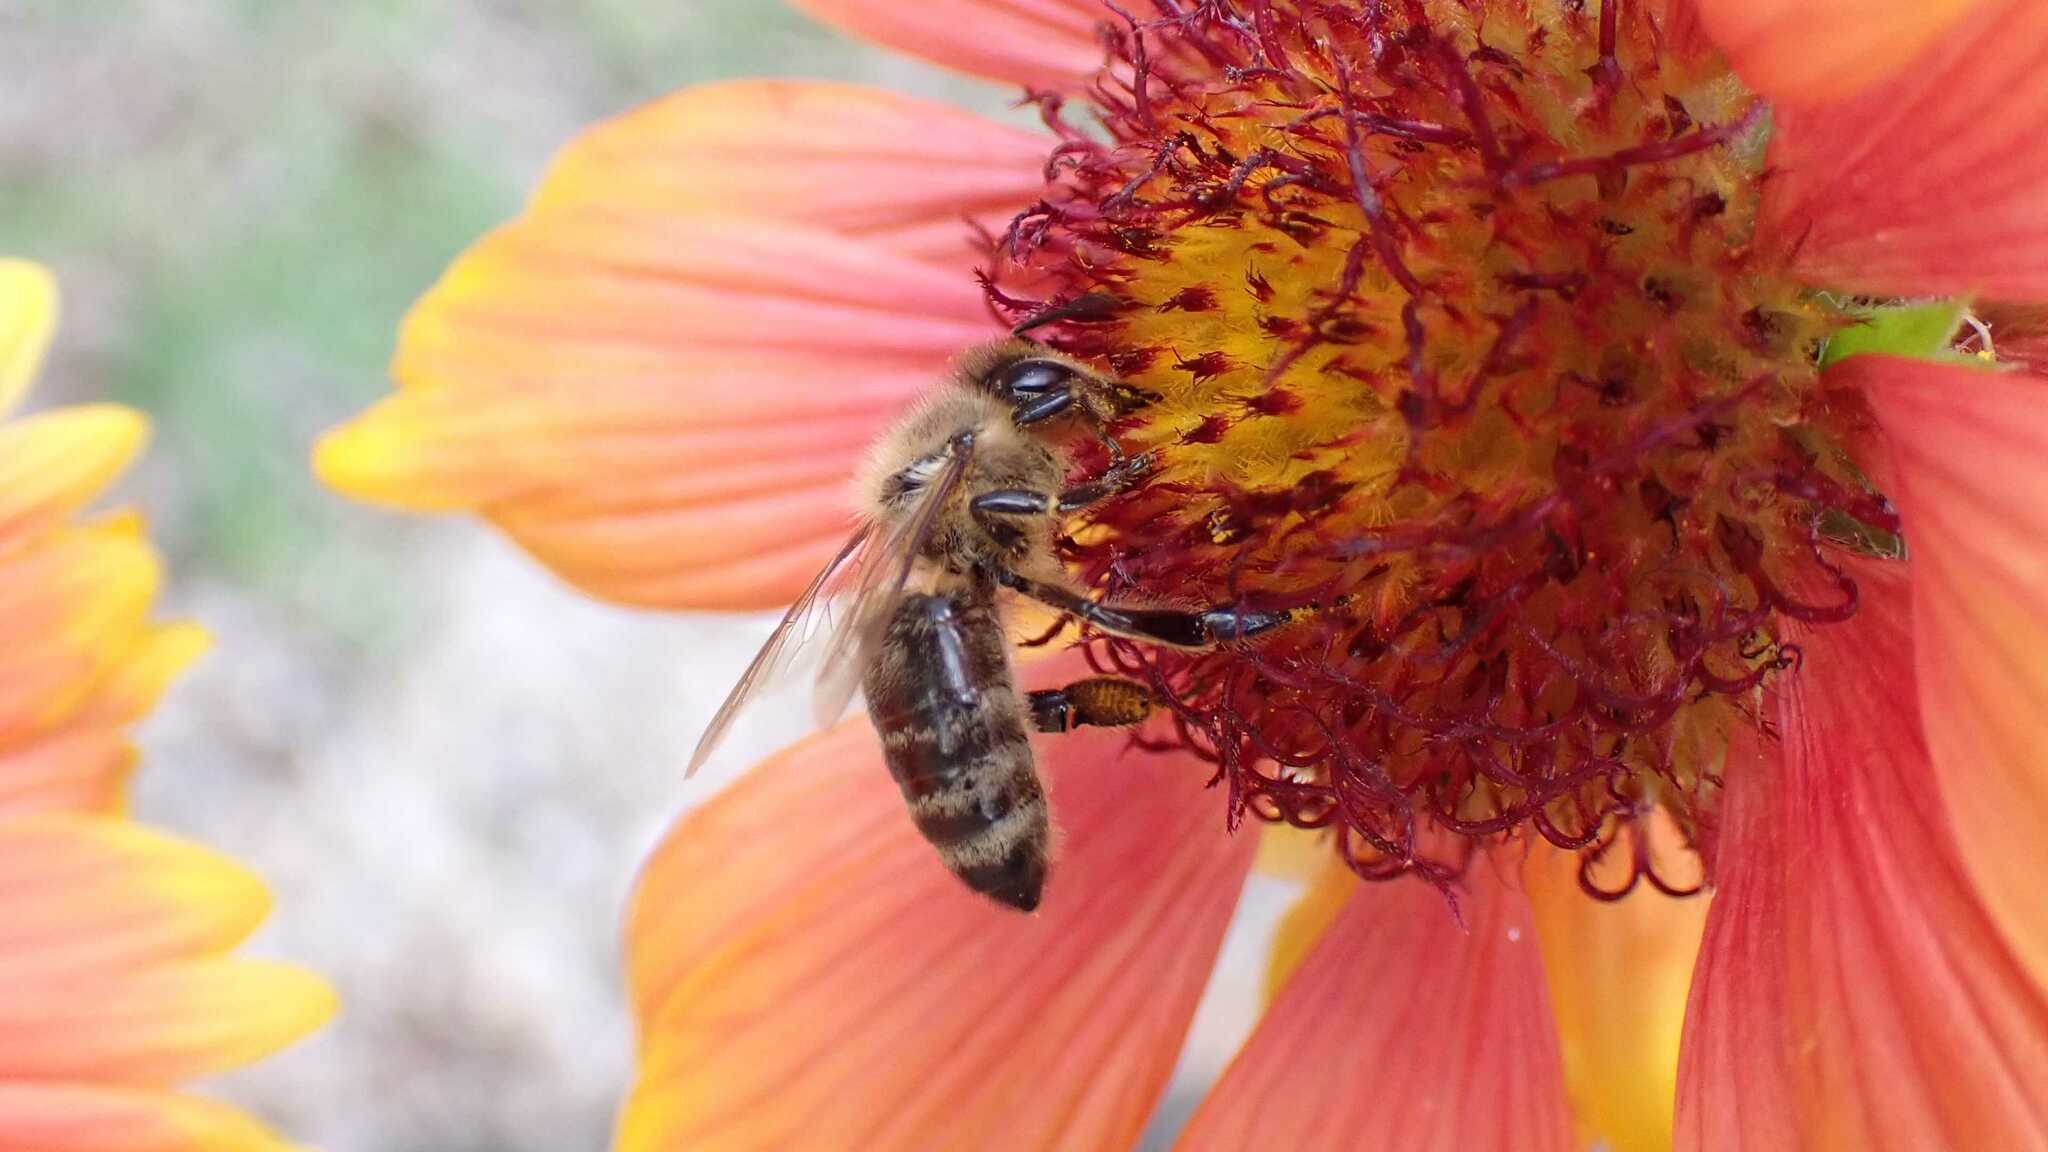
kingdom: Animalia
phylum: Arthropoda
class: Insecta
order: Hymenoptera
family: Apidae
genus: Apis
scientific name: Apis mellifera
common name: Honey bee
